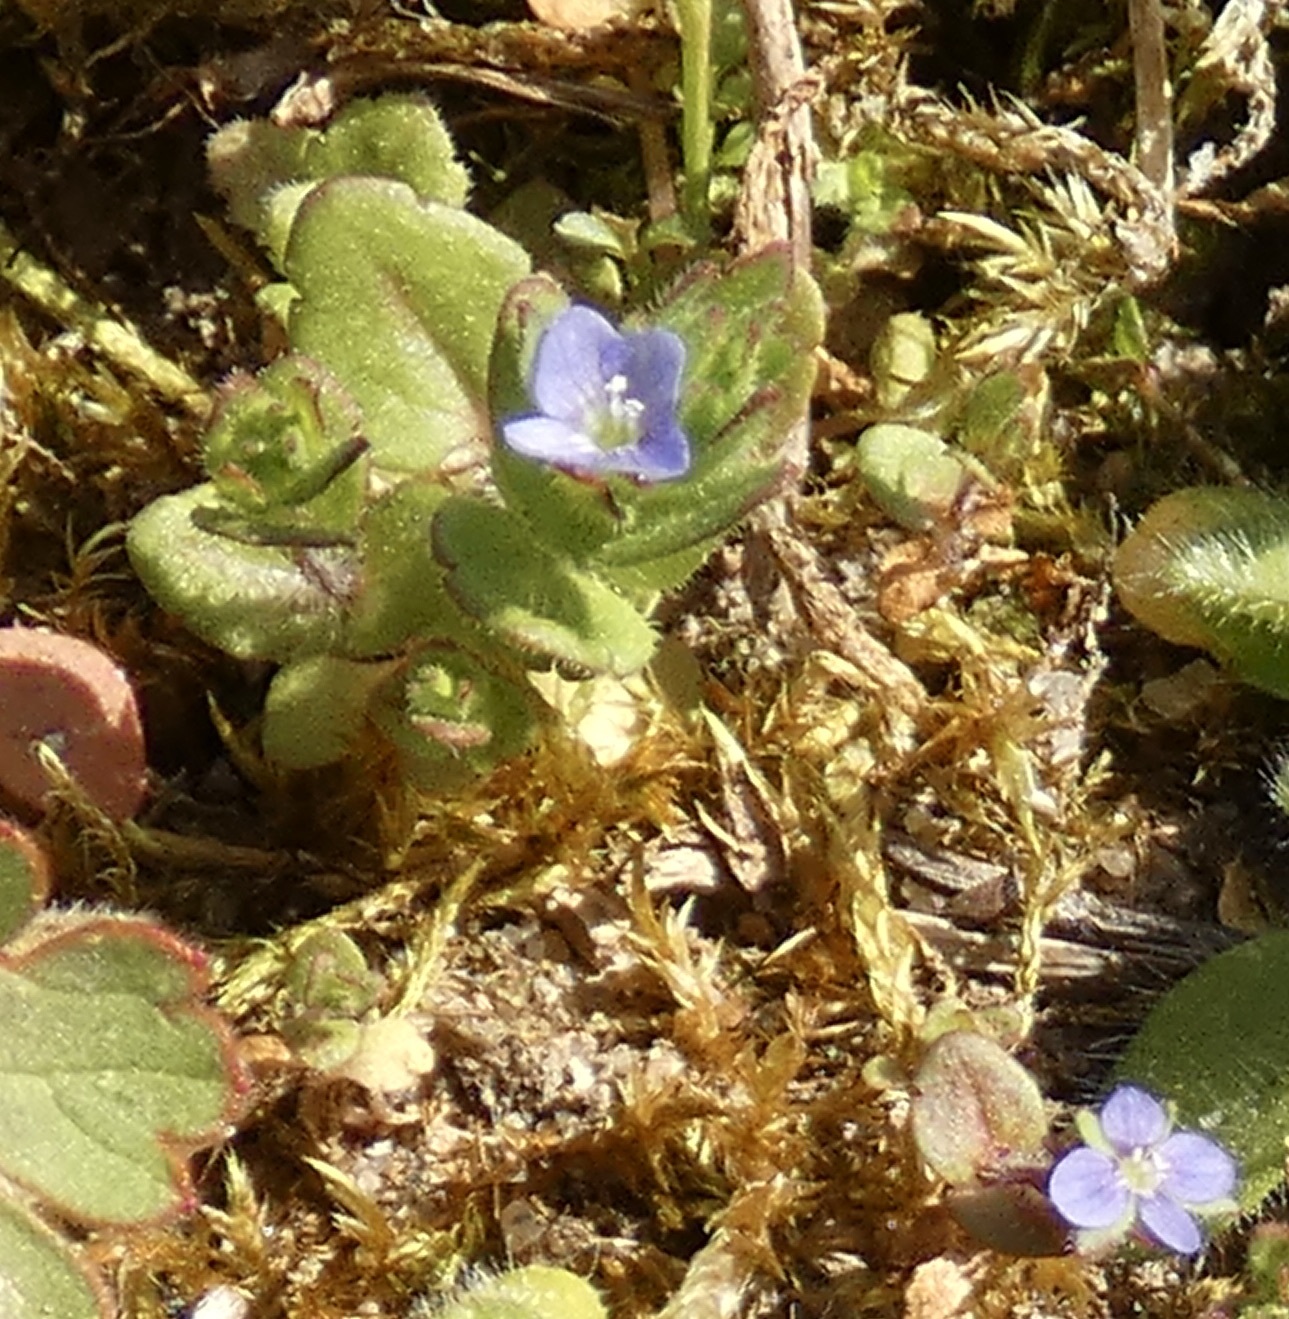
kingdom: Plantae
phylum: Tracheophyta
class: Magnoliopsida
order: Lamiales
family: Plantaginaceae
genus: Veronica
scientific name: Veronica arvensis
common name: Corn speedwell
